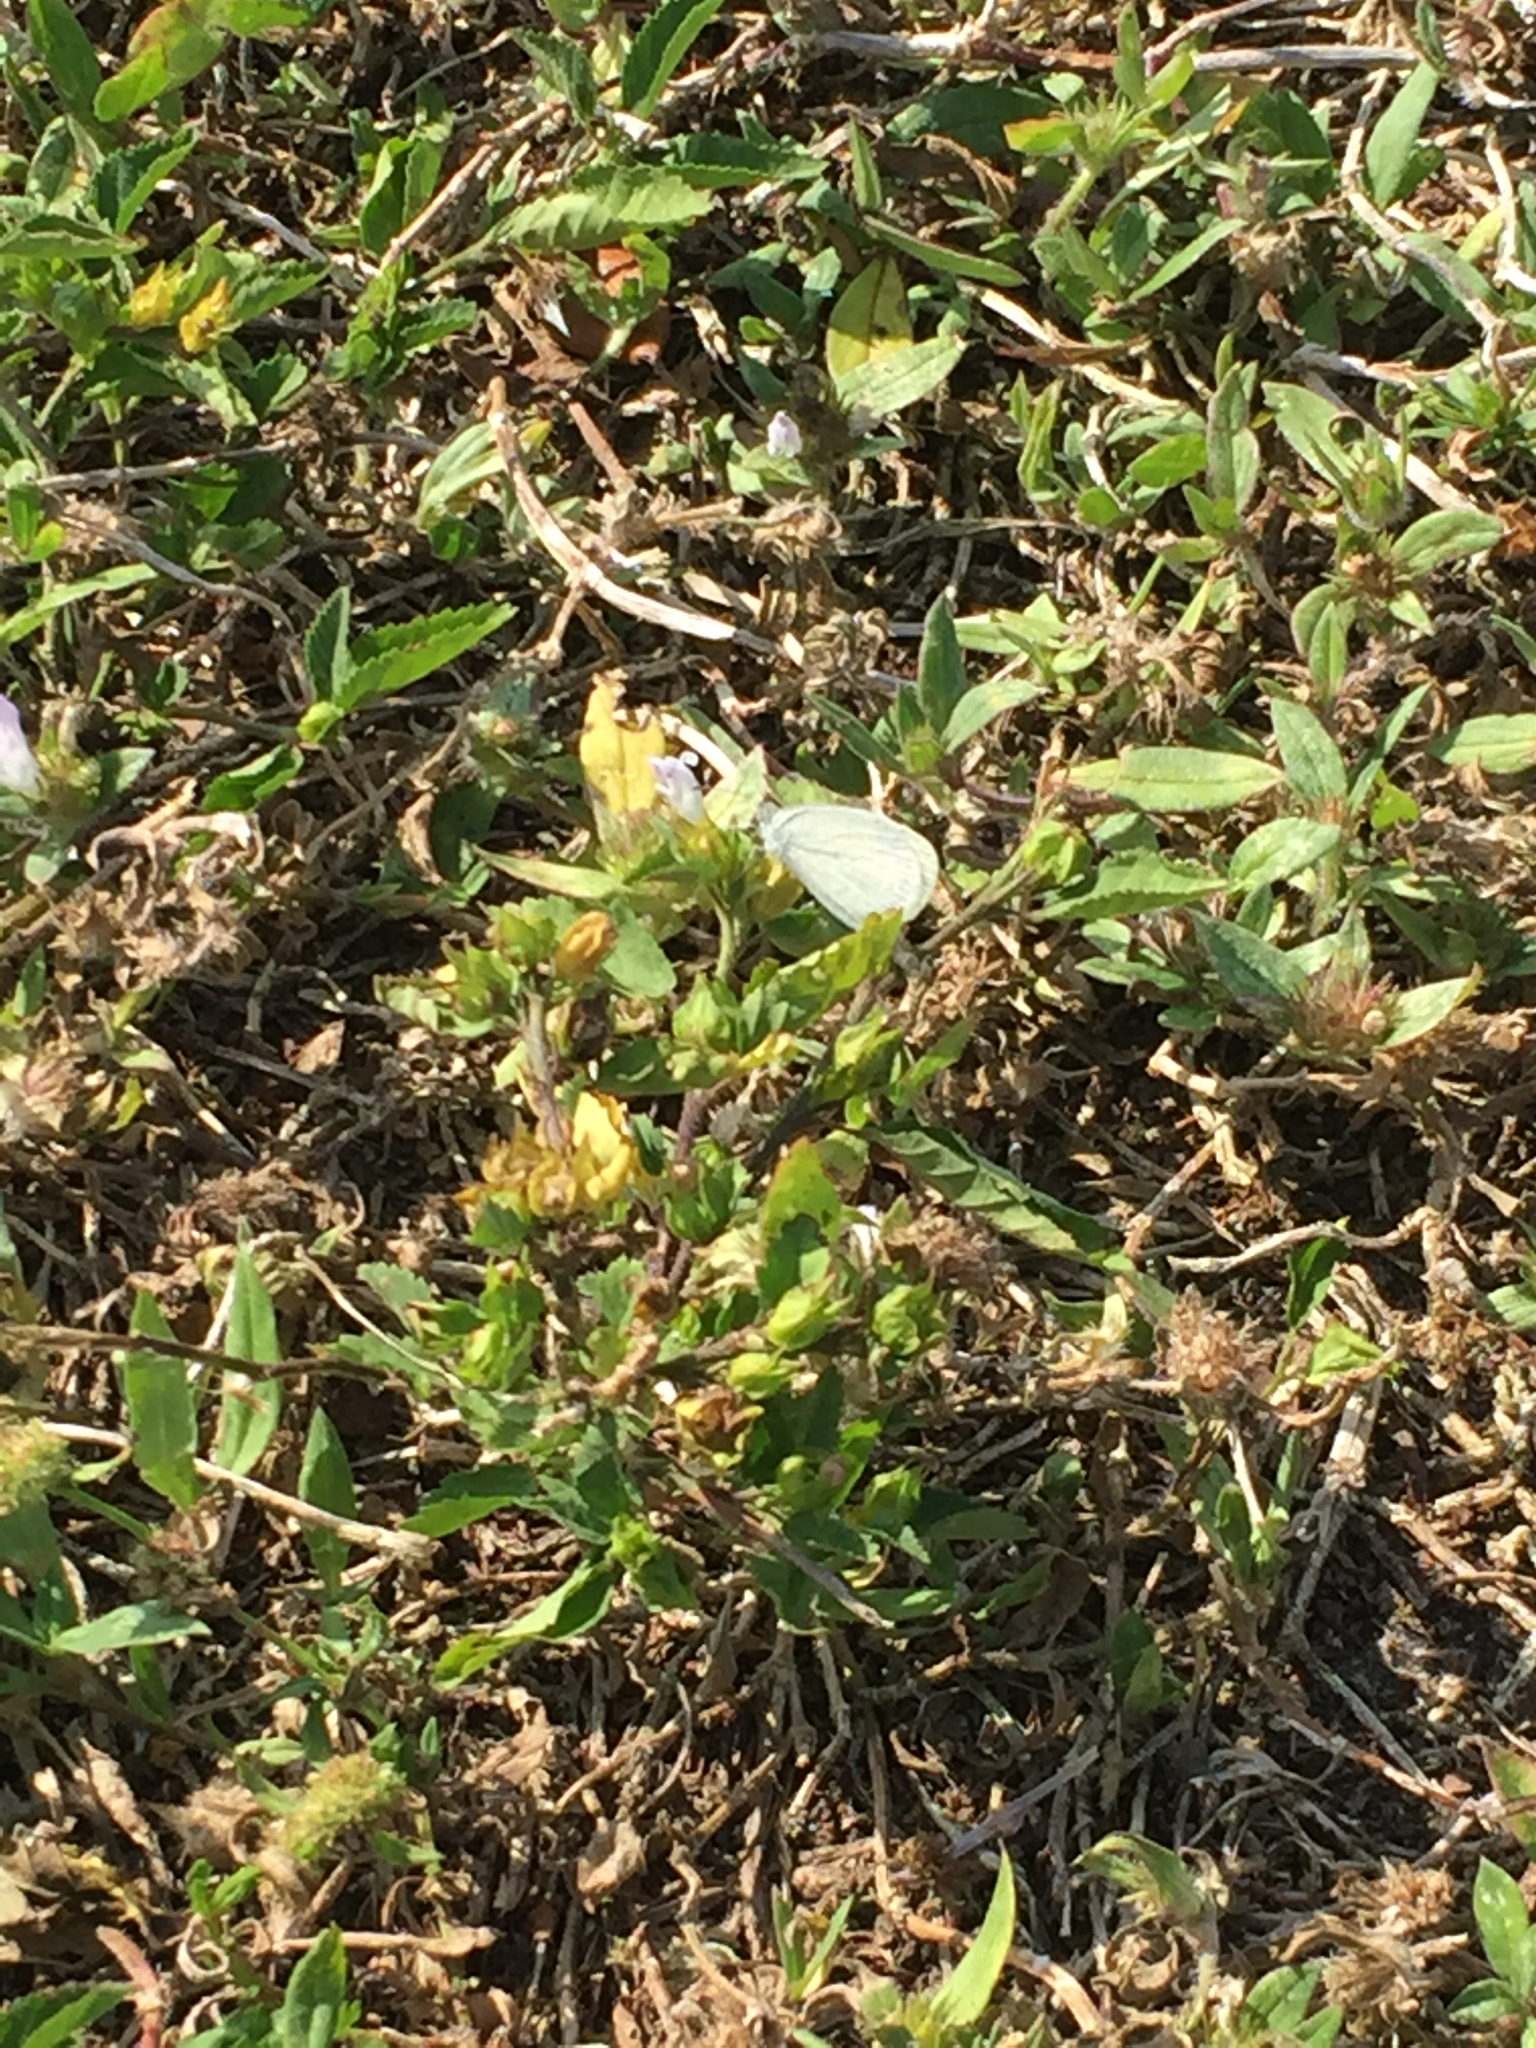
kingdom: Animalia
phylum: Arthropoda
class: Insecta
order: Lepidoptera
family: Pieridae
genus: Eurema
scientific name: Eurema daira
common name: Barred sulphur
